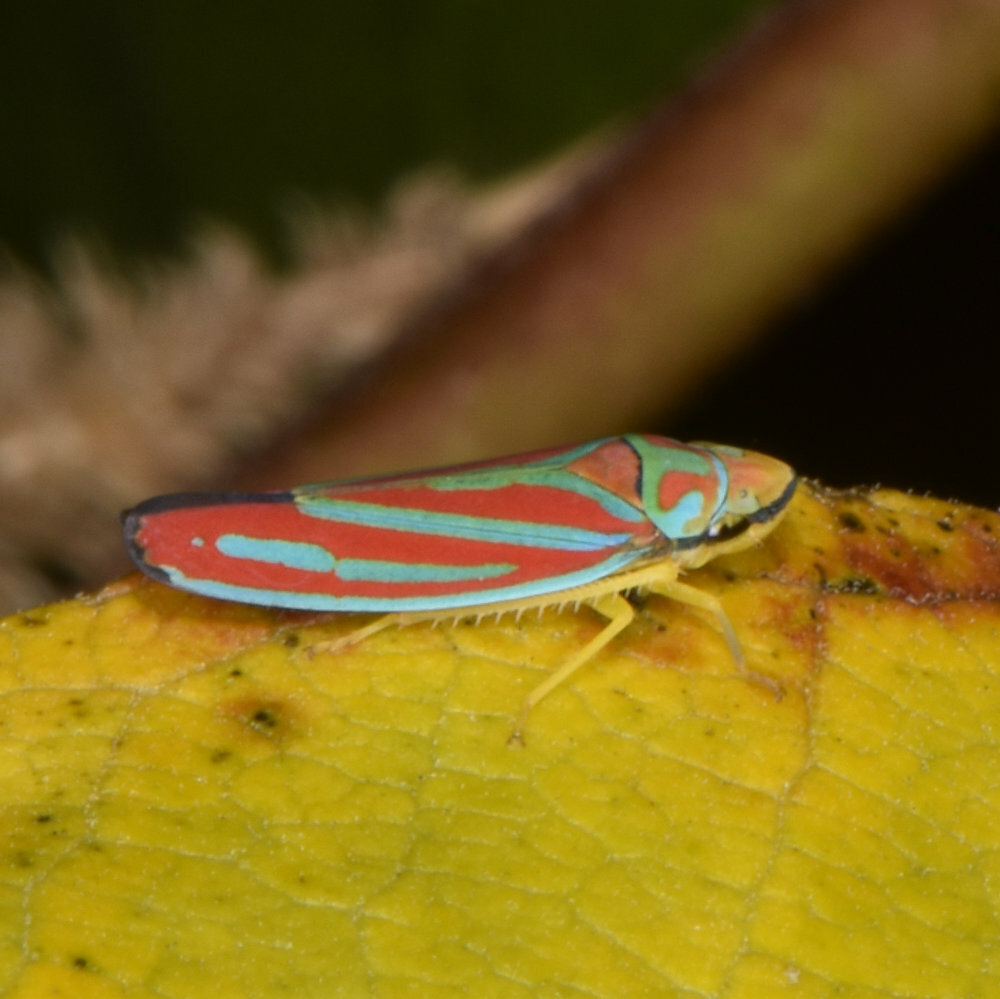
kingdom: Animalia
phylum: Arthropoda
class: Insecta
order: Hemiptera
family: Cicadellidae
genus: Graphocephala
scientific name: Graphocephala coccinea
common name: Candy-striped leafhopper
